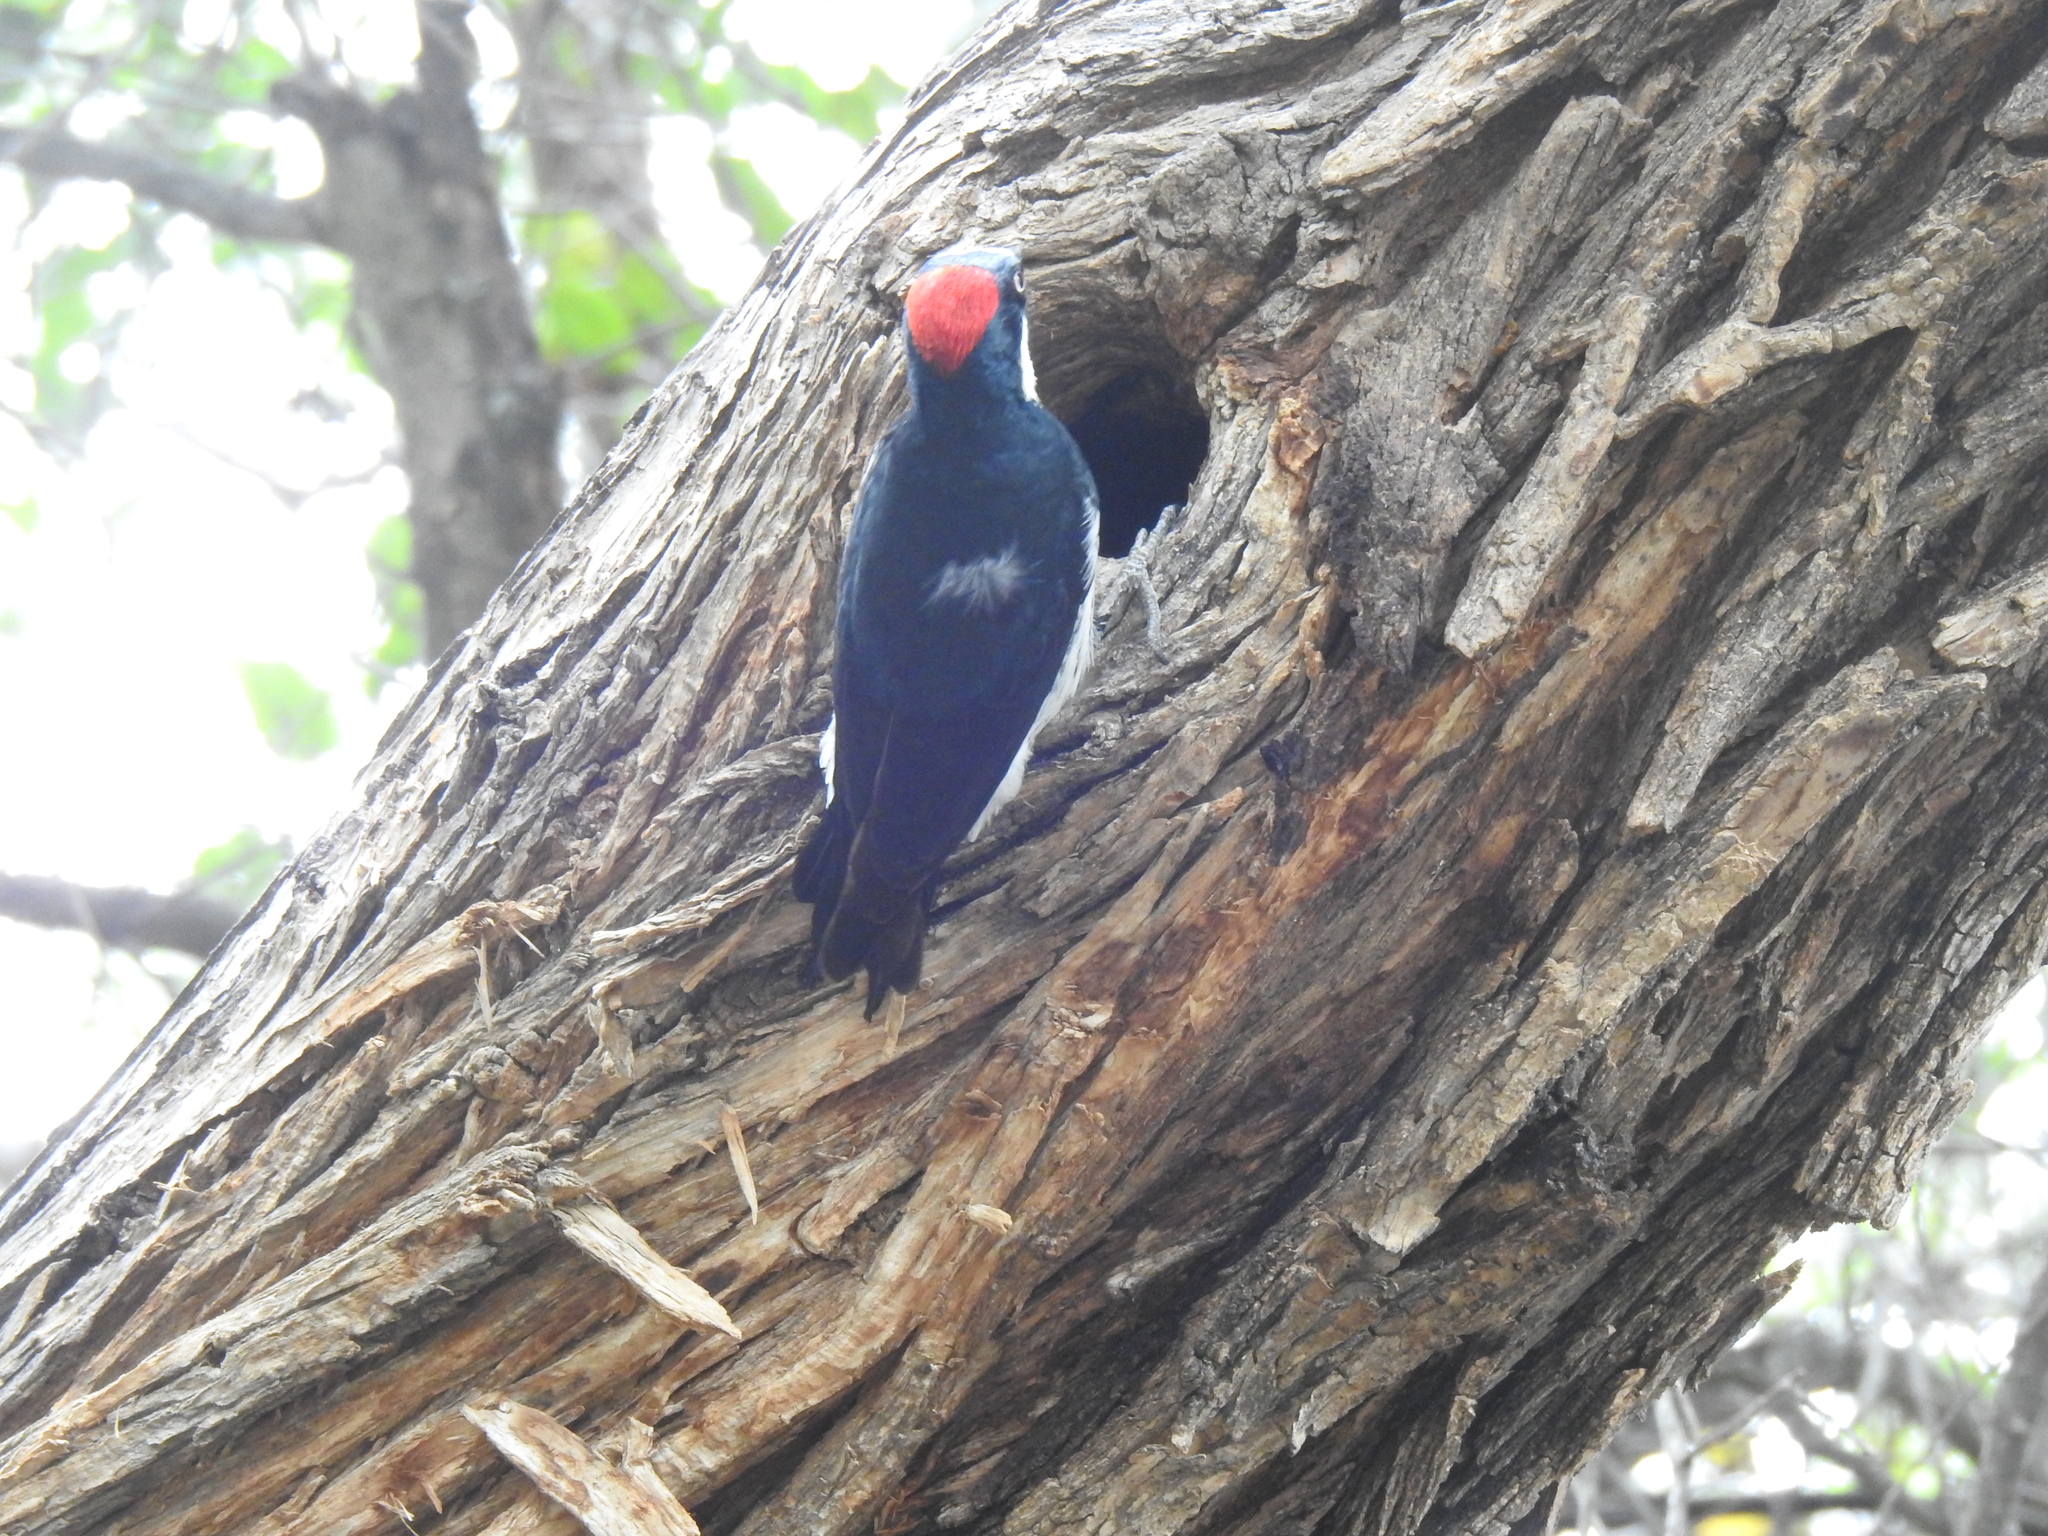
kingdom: Animalia
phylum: Chordata
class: Aves
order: Piciformes
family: Picidae
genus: Melanerpes
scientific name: Melanerpes formicivorus
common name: Acorn woodpecker
